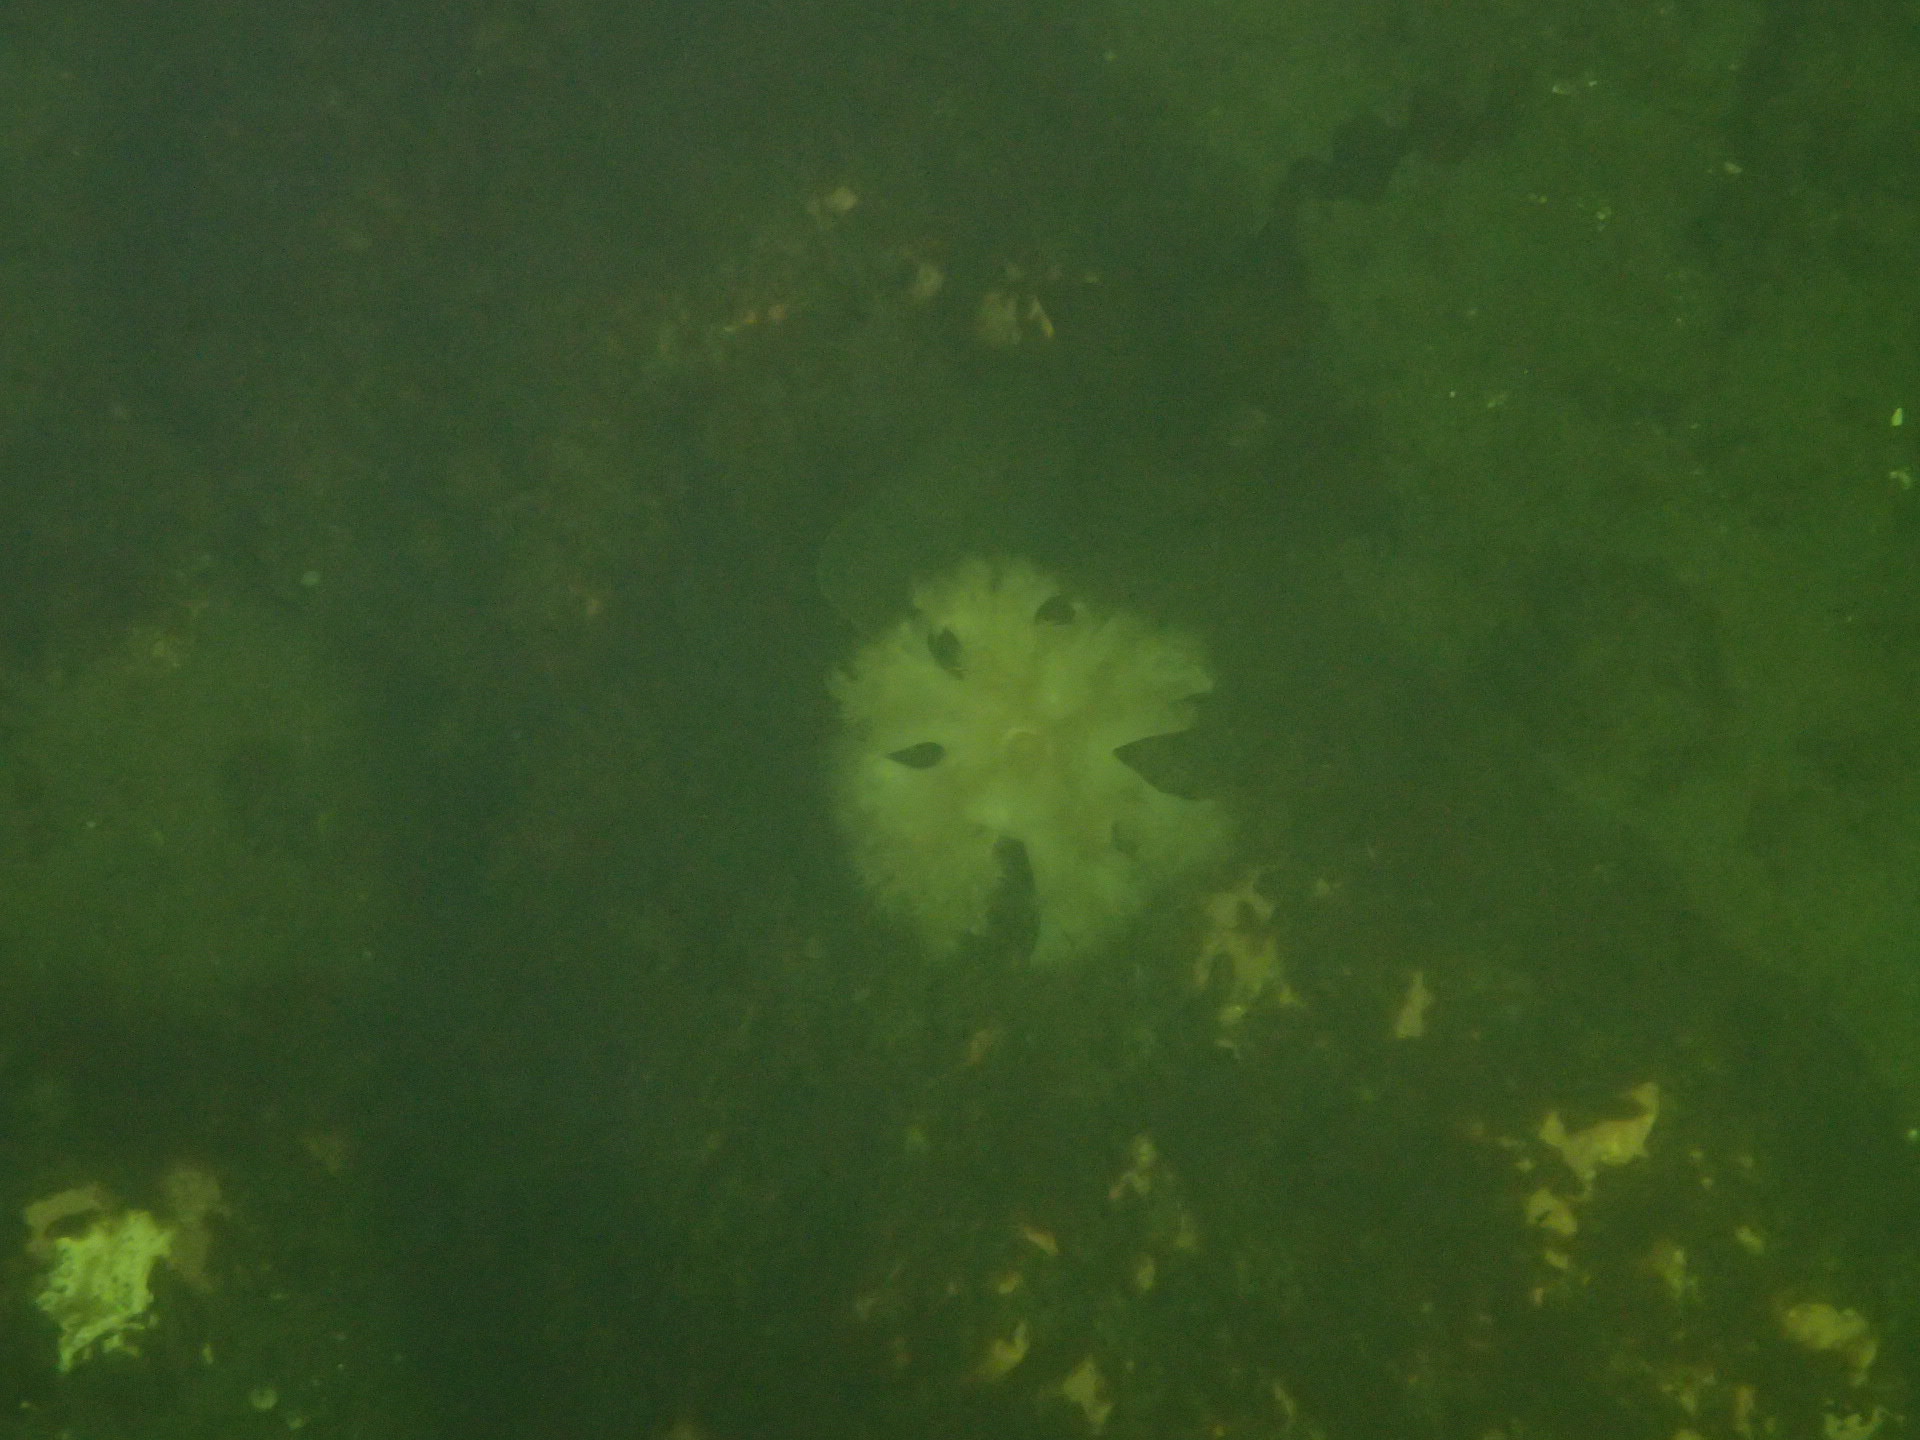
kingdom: Animalia
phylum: Cnidaria
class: Anthozoa
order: Actiniaria
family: Metridiidae
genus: Metridium
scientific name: Metridium senile
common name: Clonal plumose anemone
